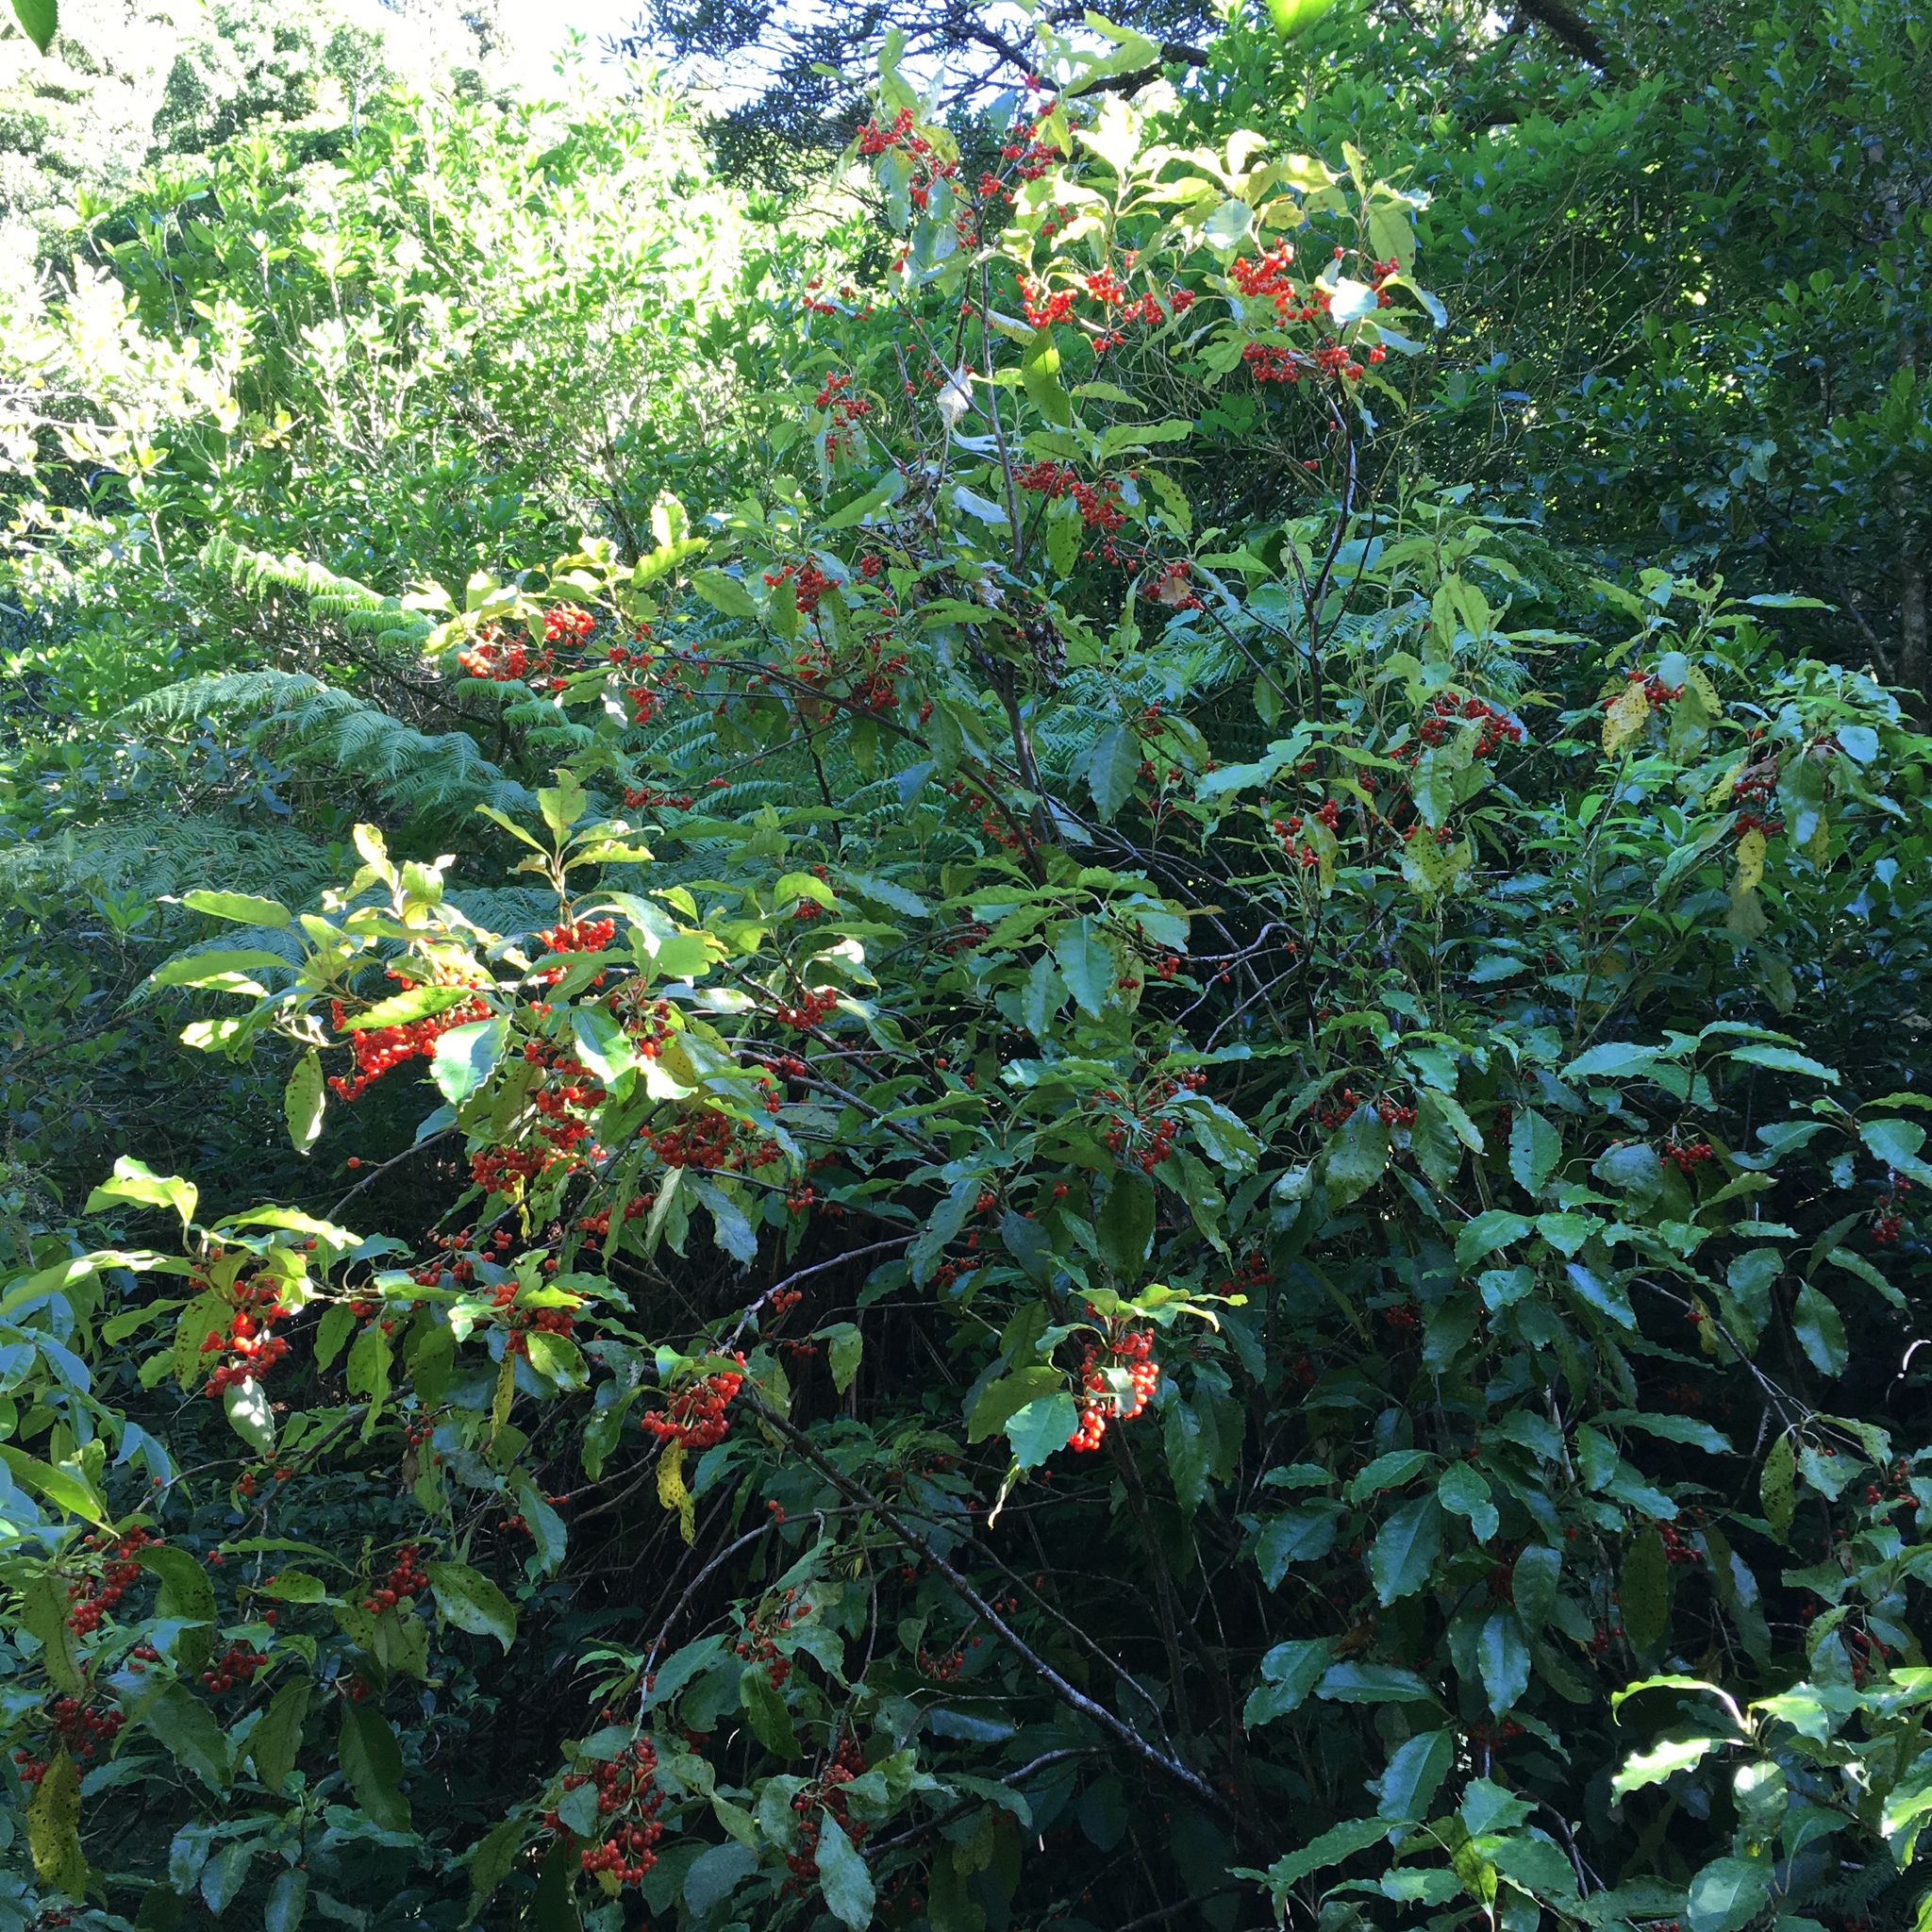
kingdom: Plantae
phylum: Tracheophyta
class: Magnoliopsida
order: Gentianales
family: Rubiaceae
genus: Coprosma
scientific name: Coprosma autumnalis
